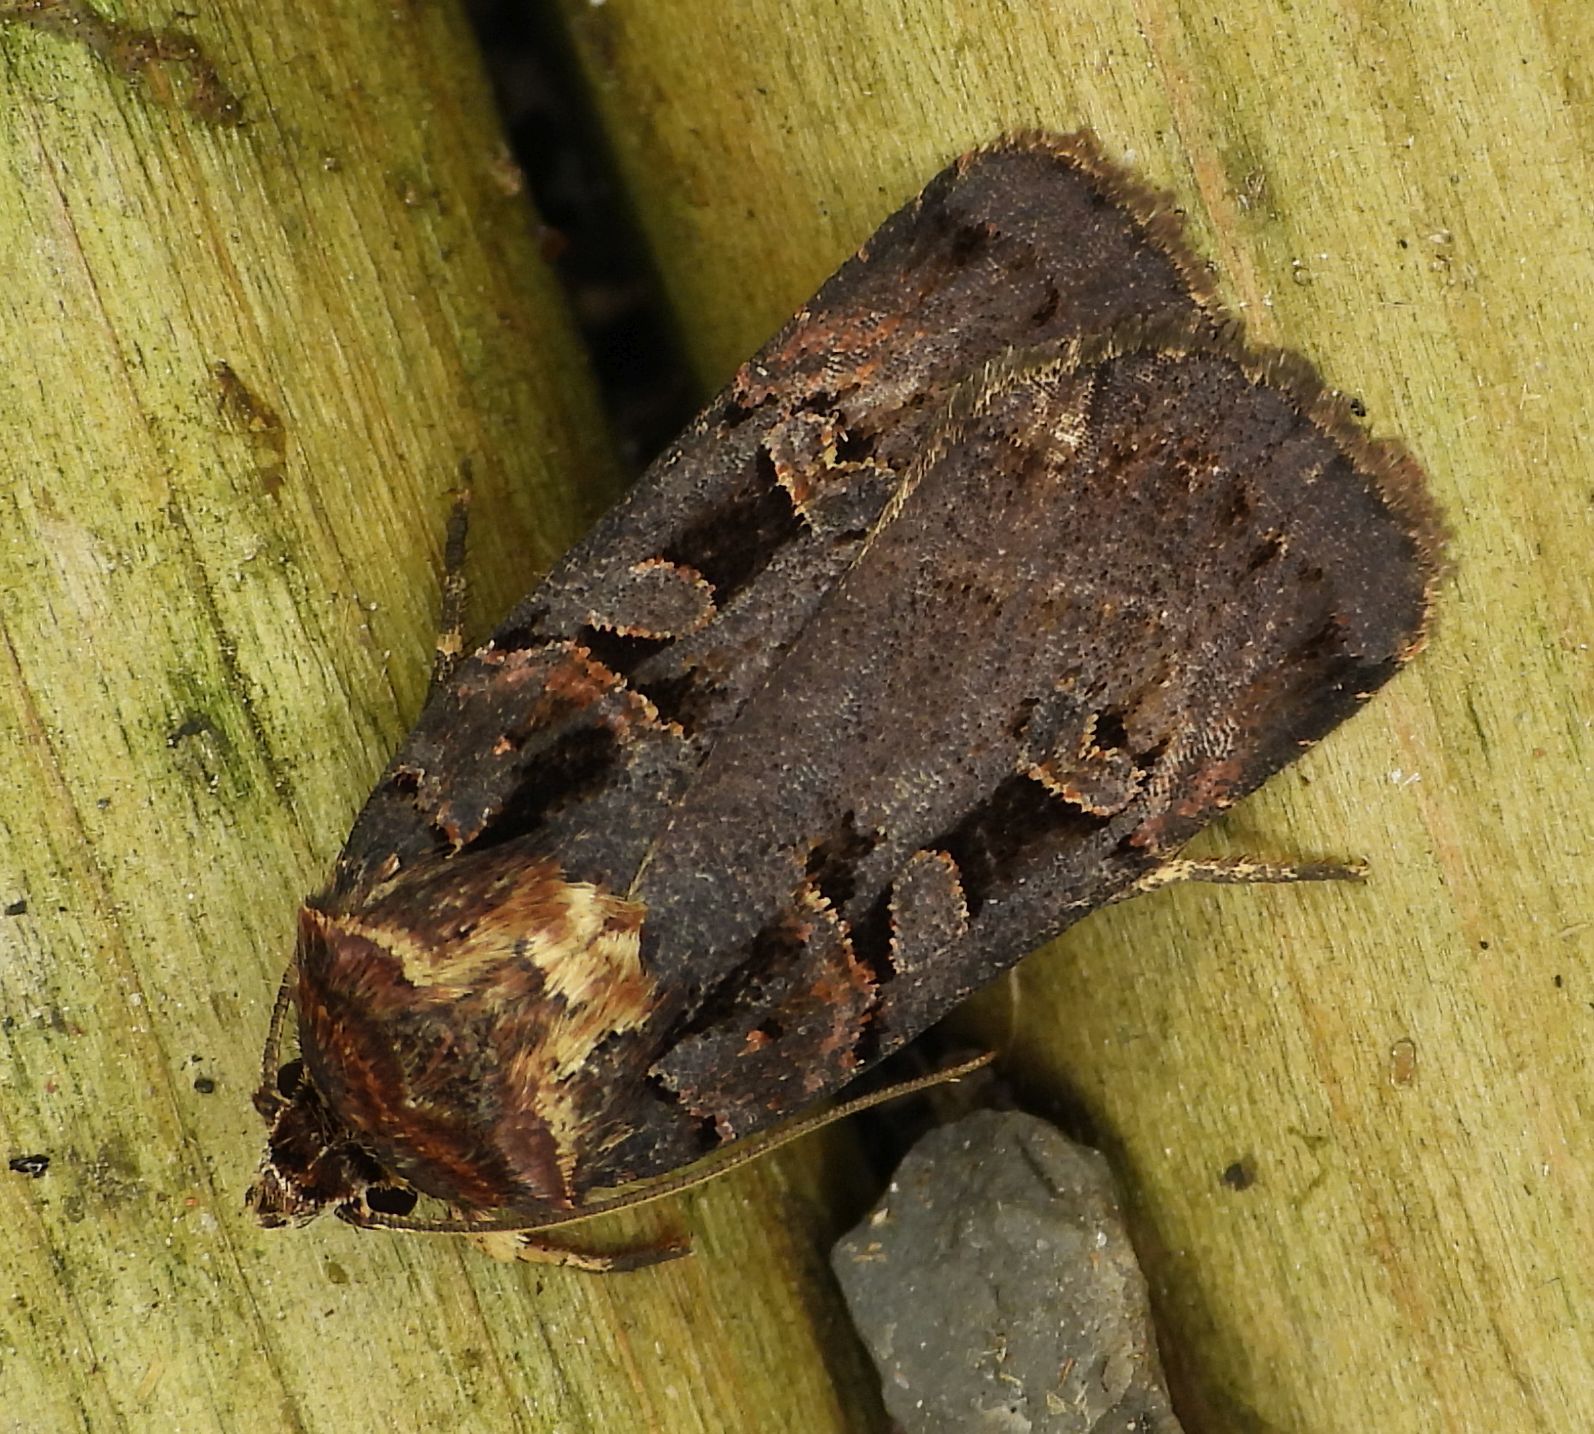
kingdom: Animalia
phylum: Arthropoda
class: Insecta
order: Lepidoptera
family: Noctuidae
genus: Pseudohermonassa
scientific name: Pseudohermonassa bicarnea
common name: Pink spotted dart
